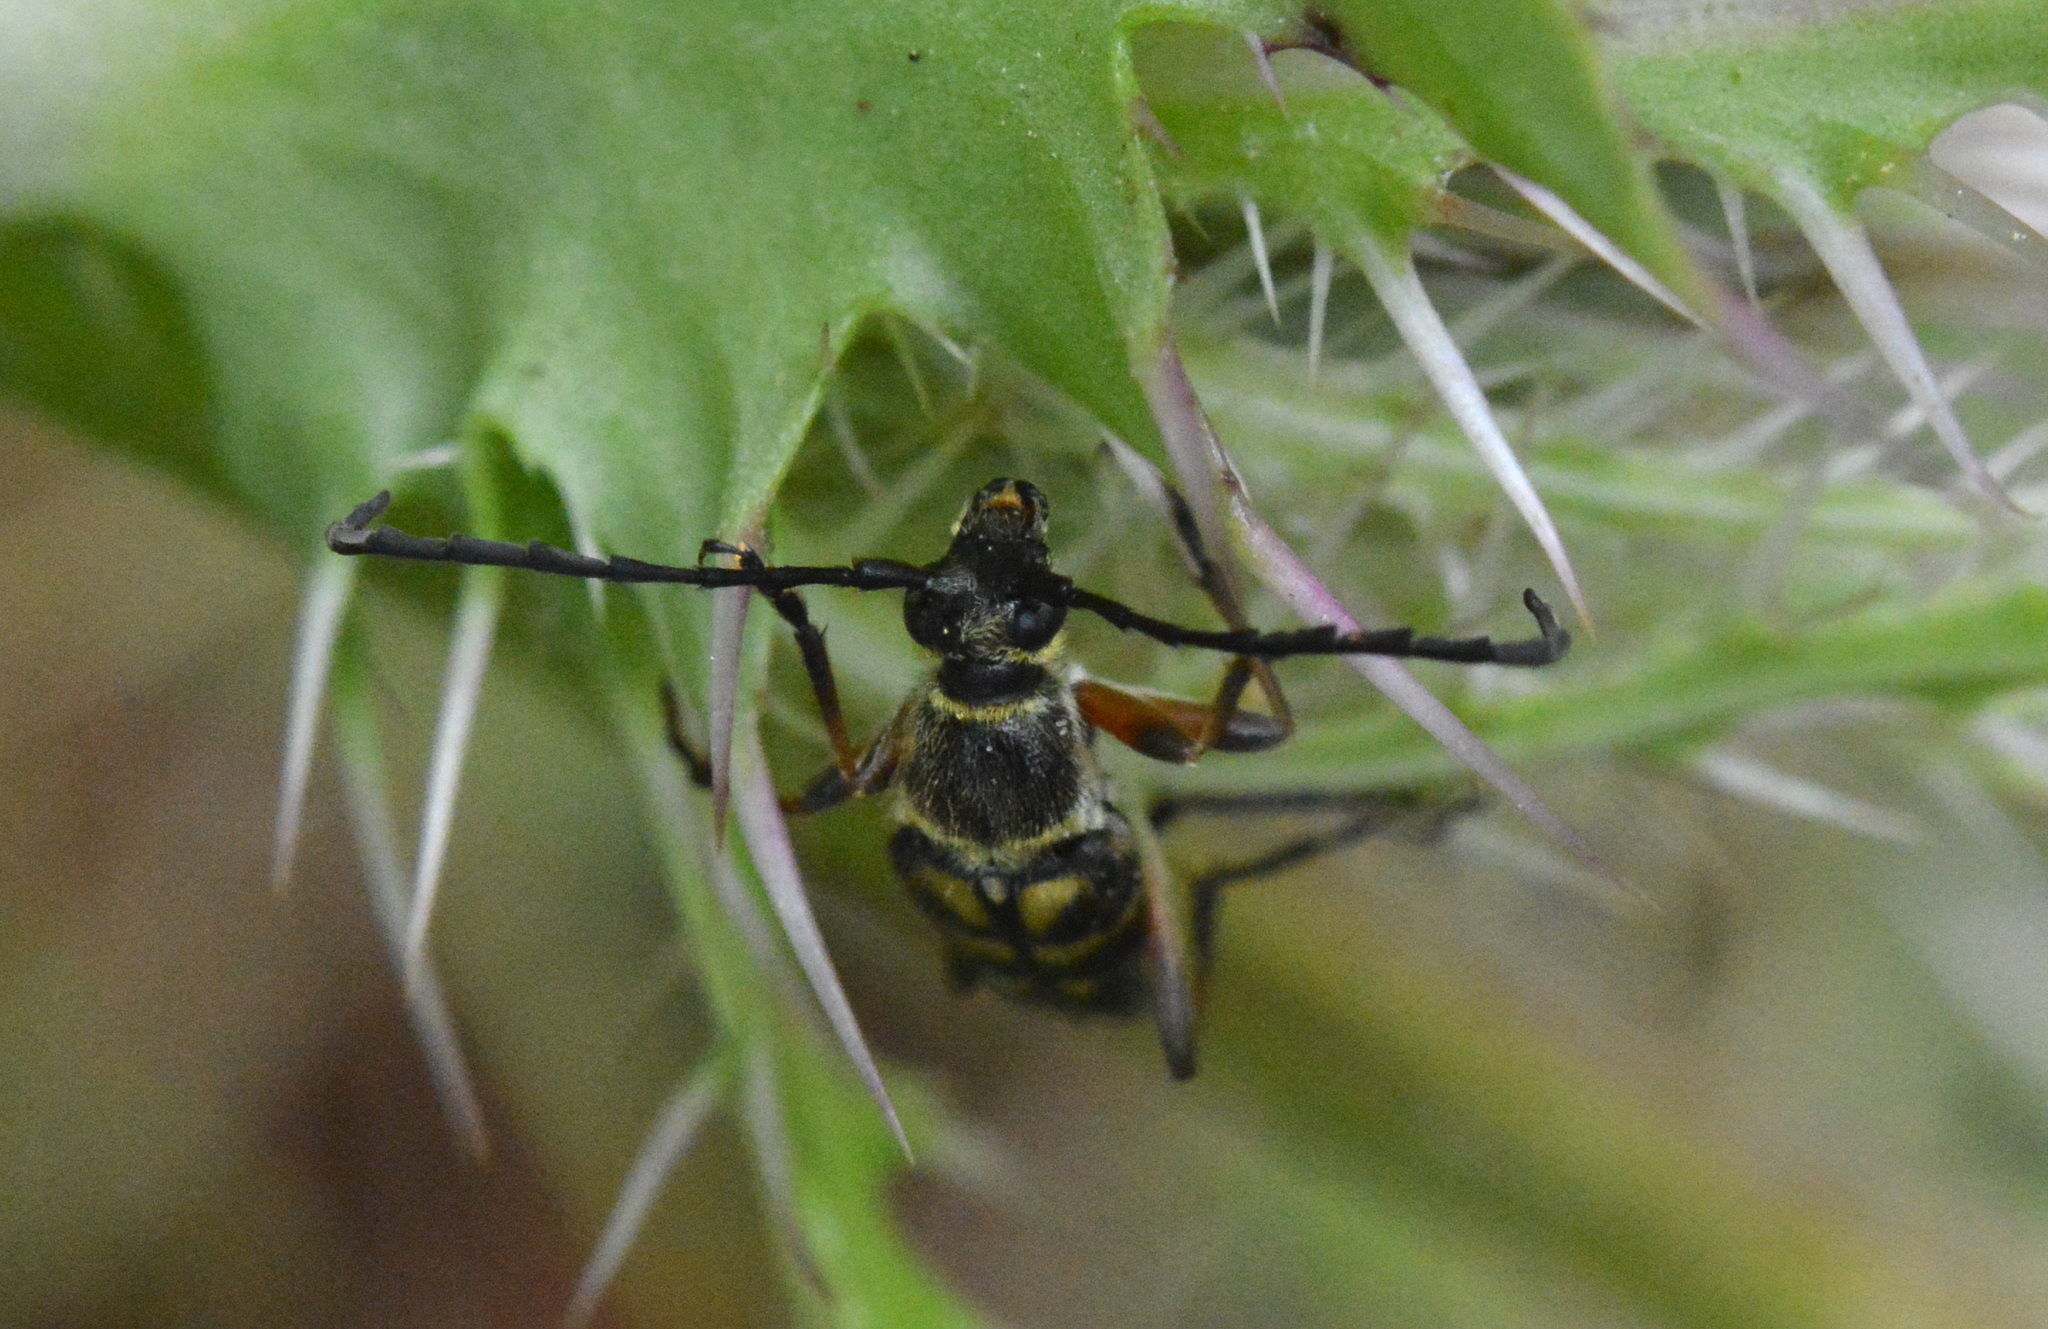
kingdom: Animalia
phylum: Arthropoda
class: Insecta
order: Coleoptera
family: Cerambycidae
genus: Typocerus
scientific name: Typocerus zebra
